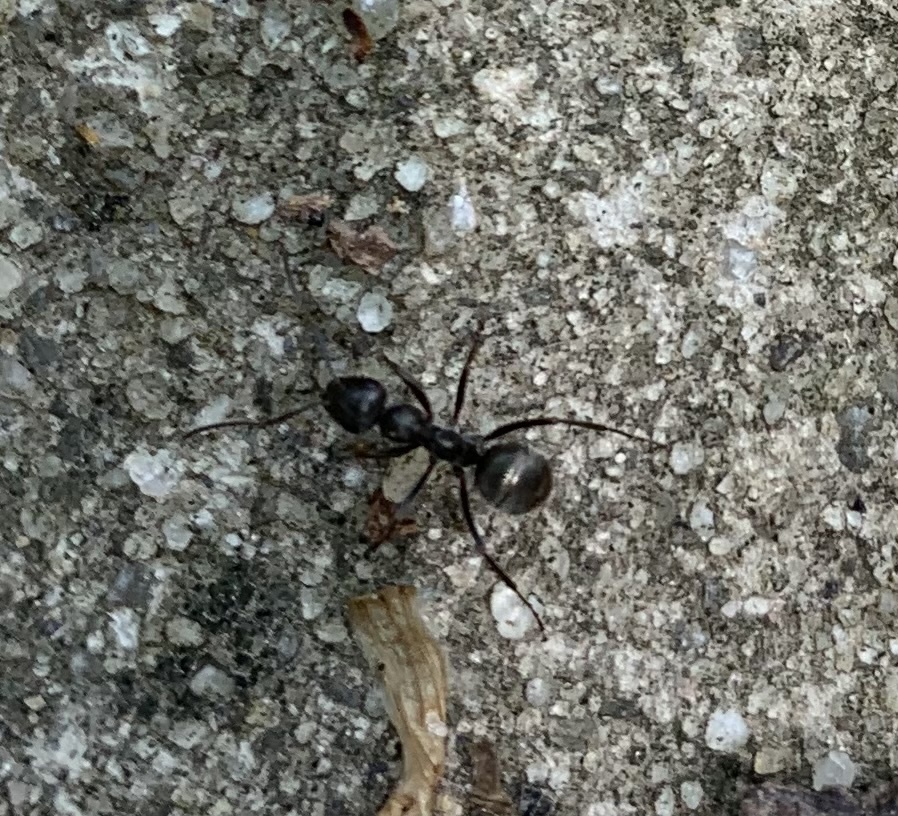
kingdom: Animalia
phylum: Arthropoda
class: Insecta
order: Hymenoptera
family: Formicidae
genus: Formica
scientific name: Formica subsericea
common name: Silky field ant
